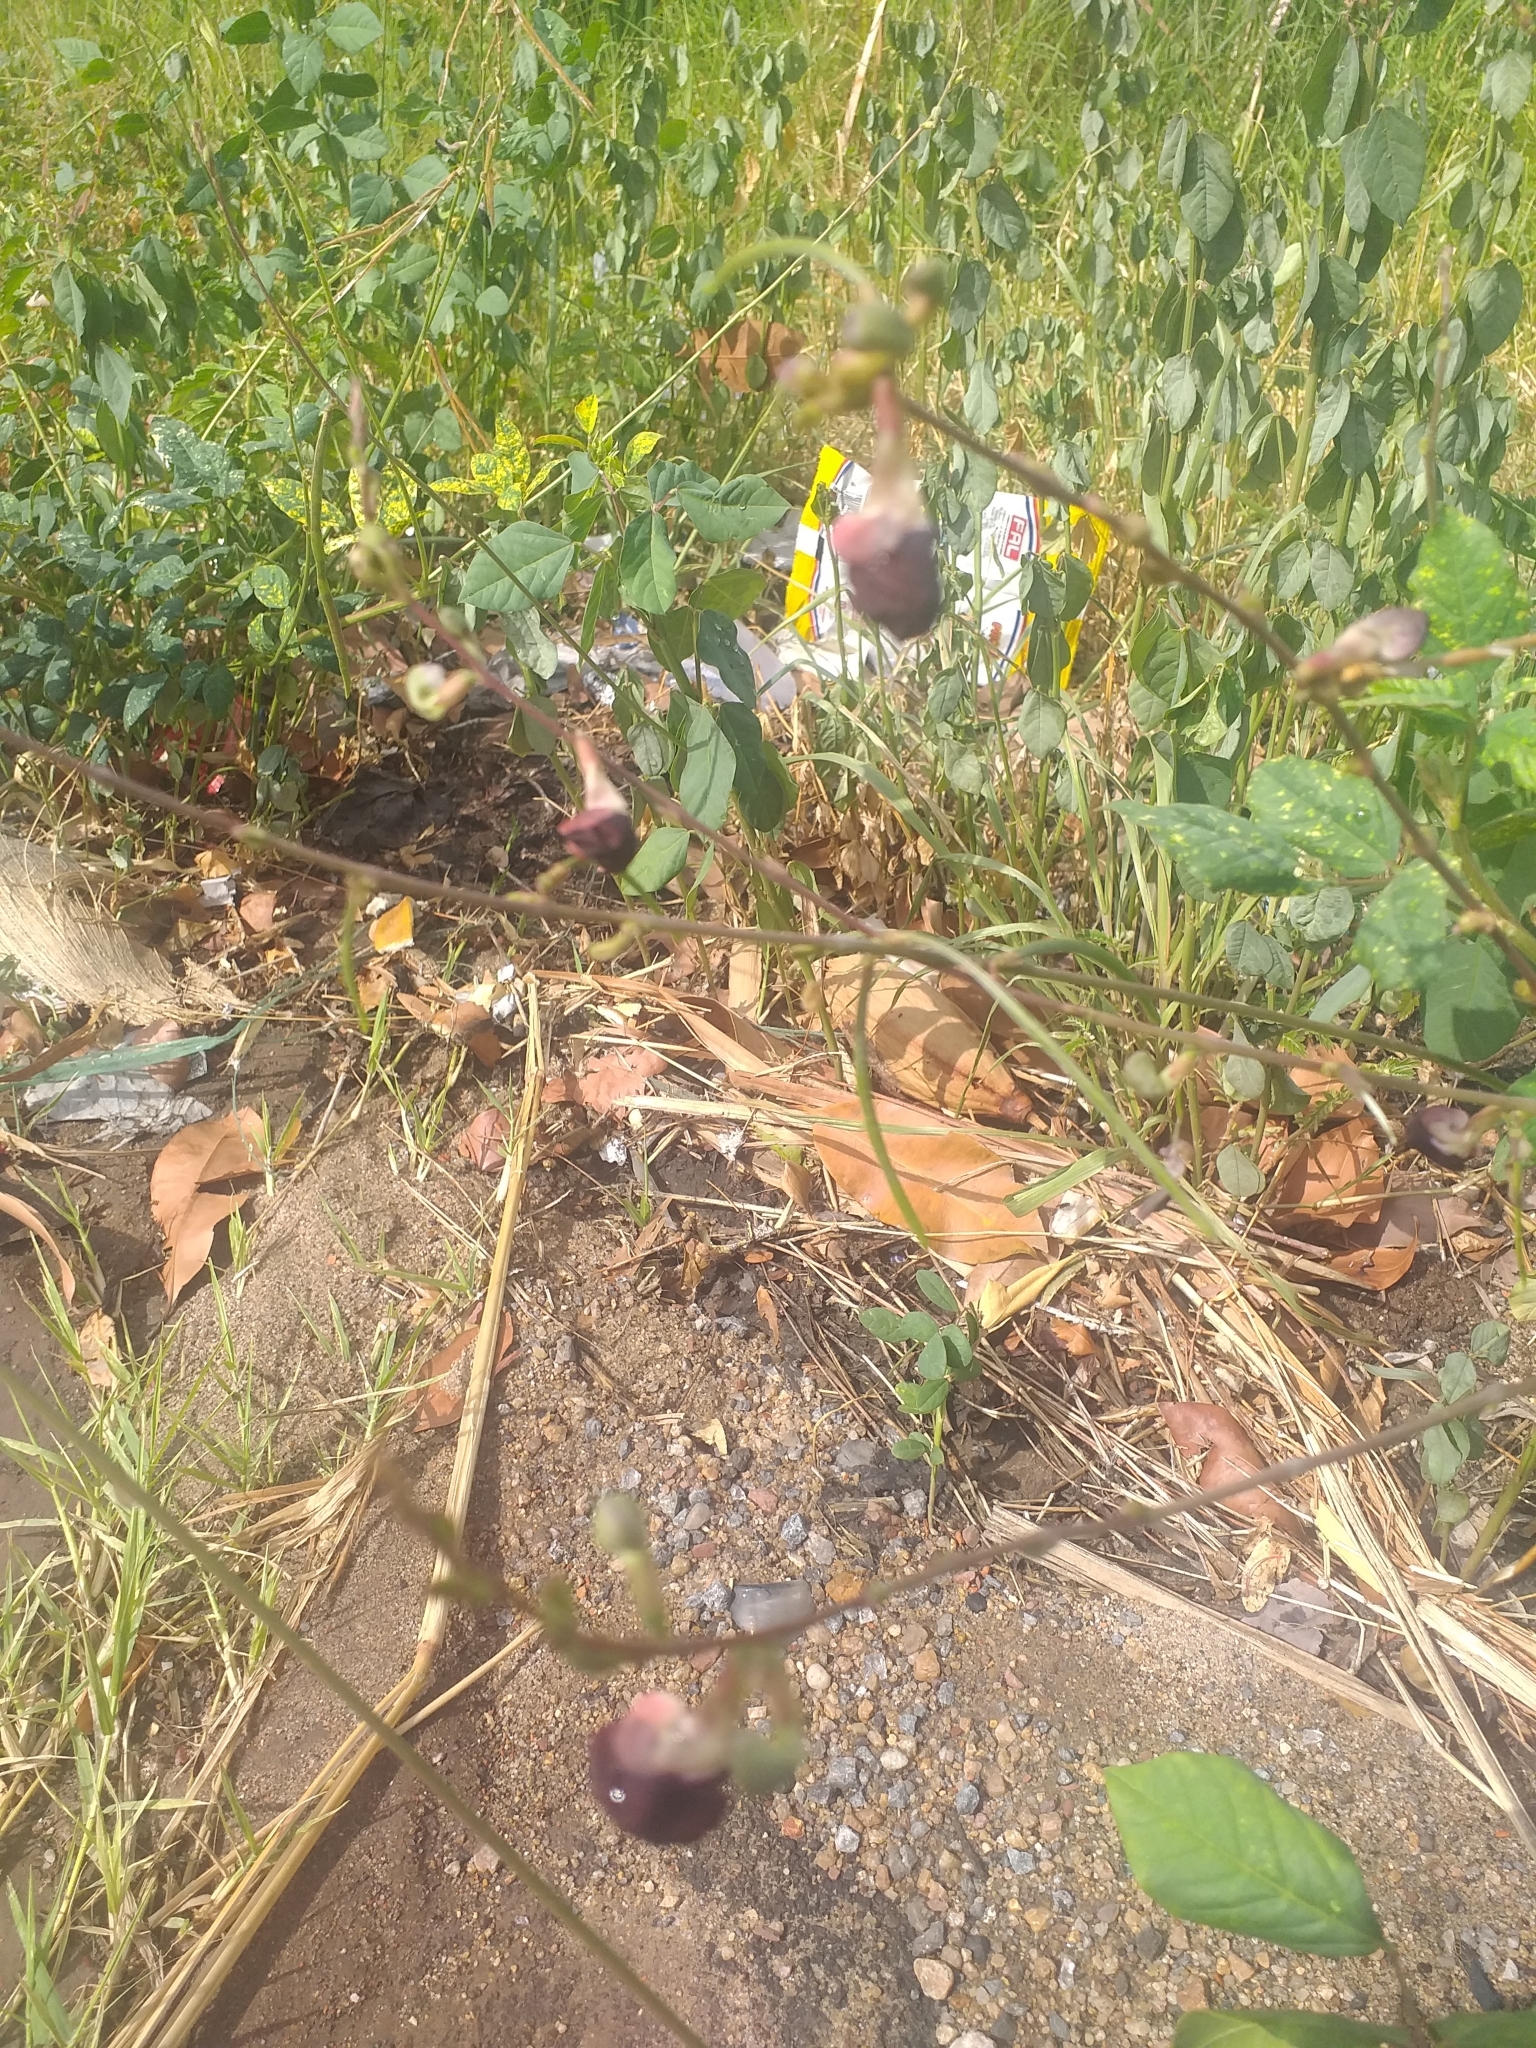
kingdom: Plantae
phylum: Tracheophyta
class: Magnoliopsida
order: Fabales
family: Fabaceae
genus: Macroptilium
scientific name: Macroptilium lathyroides
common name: Wild bushbean
